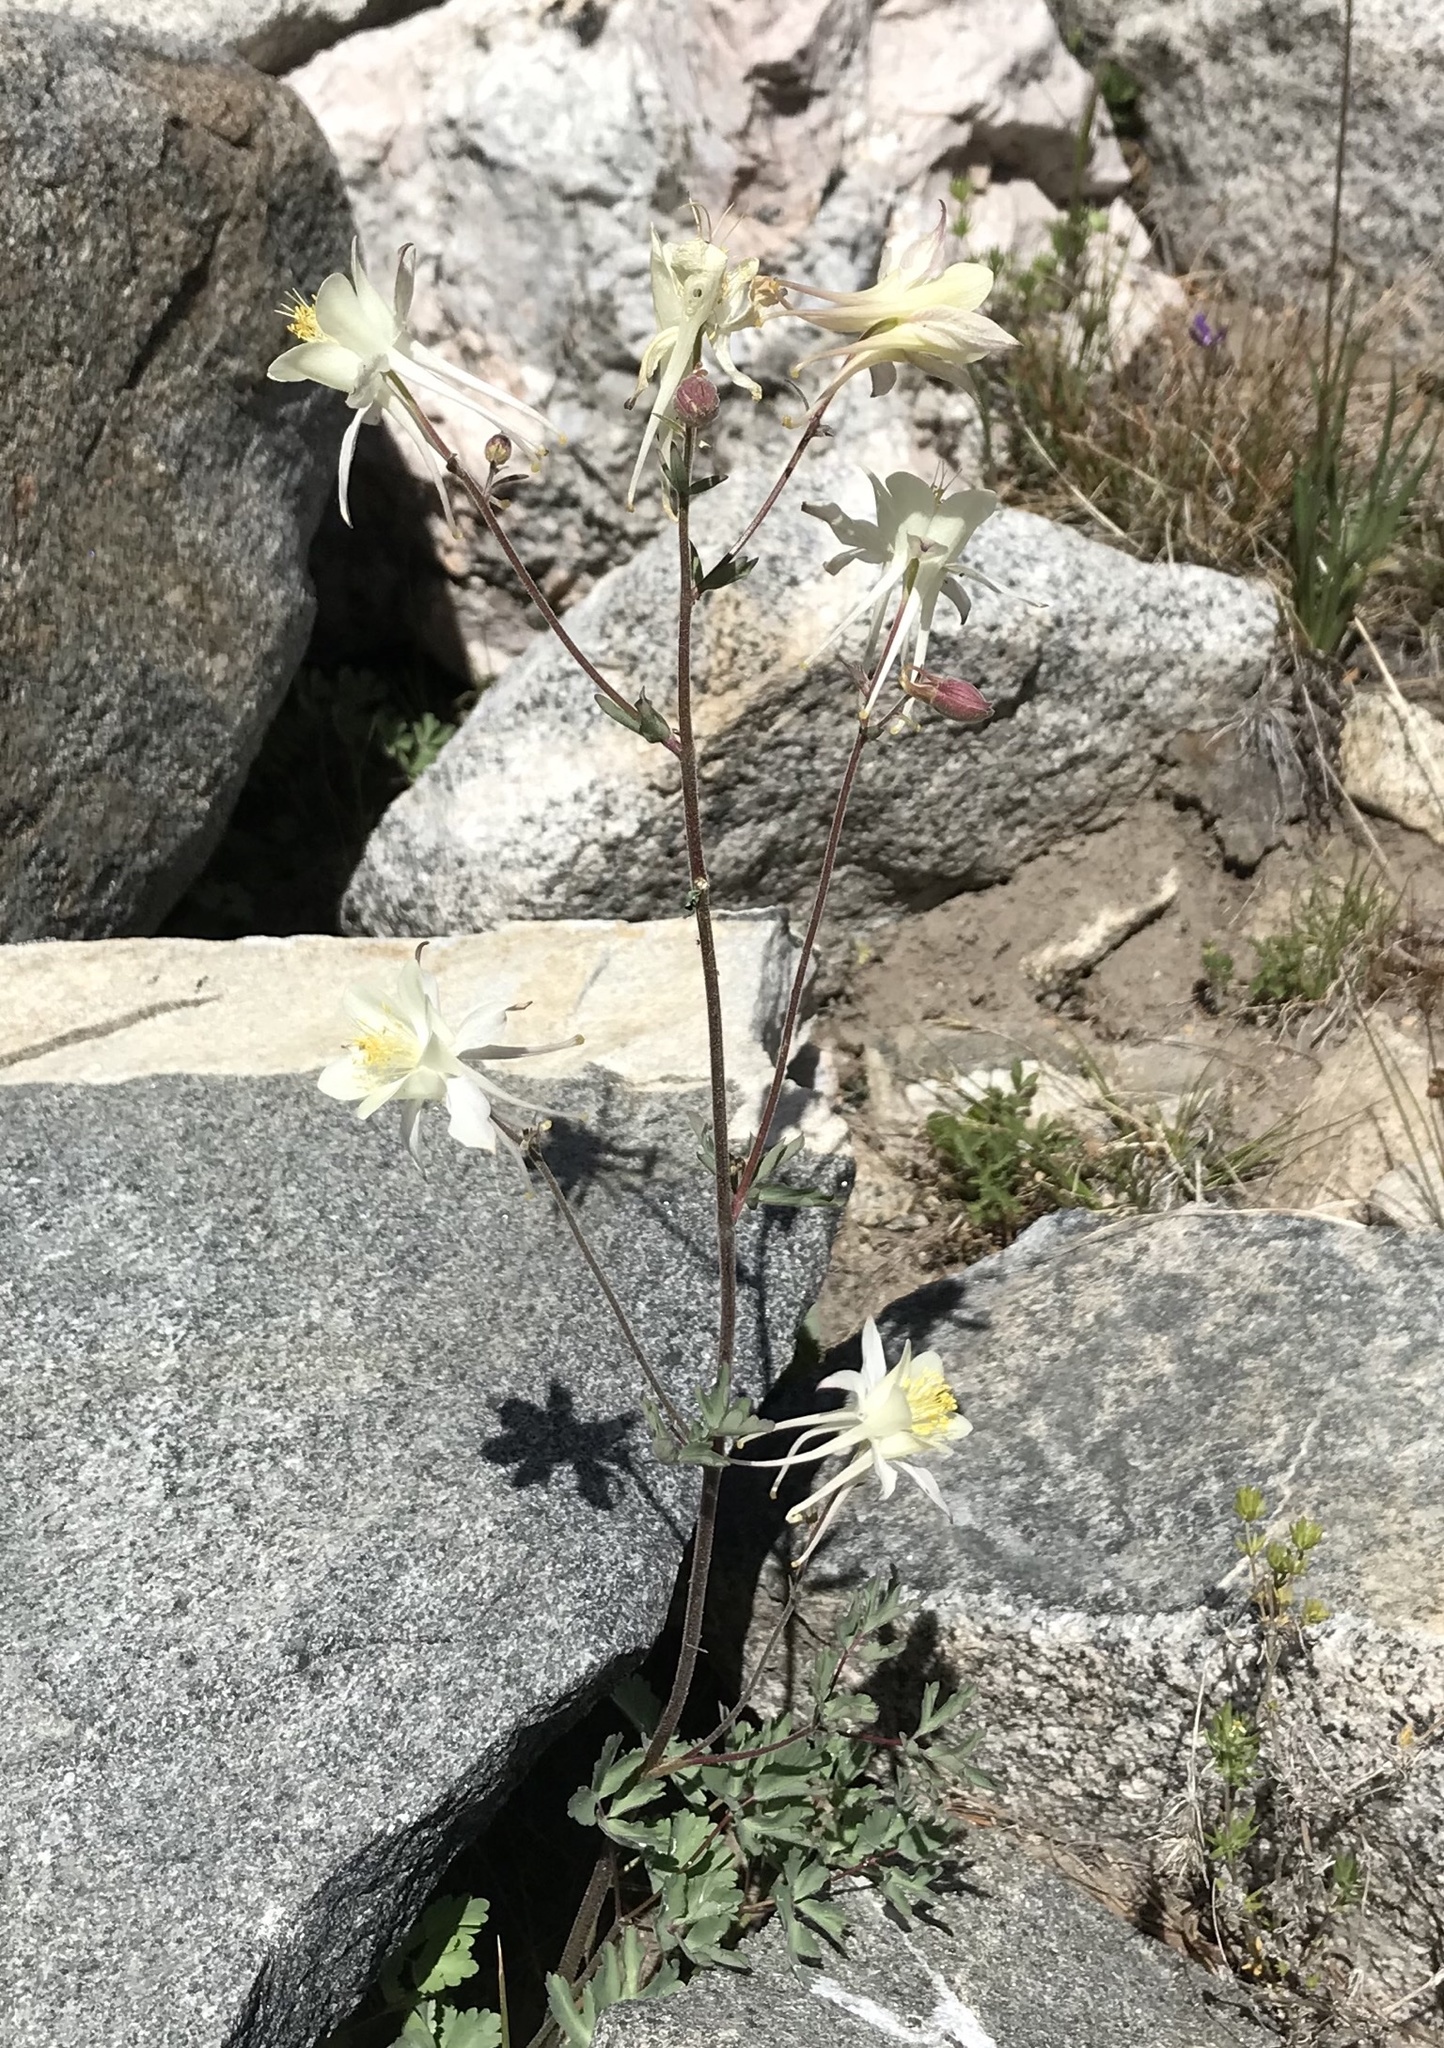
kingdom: Plantae
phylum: Tracheophyta
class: Magnoliopsida
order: Ranunculales
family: Ranunculaceae
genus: Aquilegia
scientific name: Aquilegia pubescens
